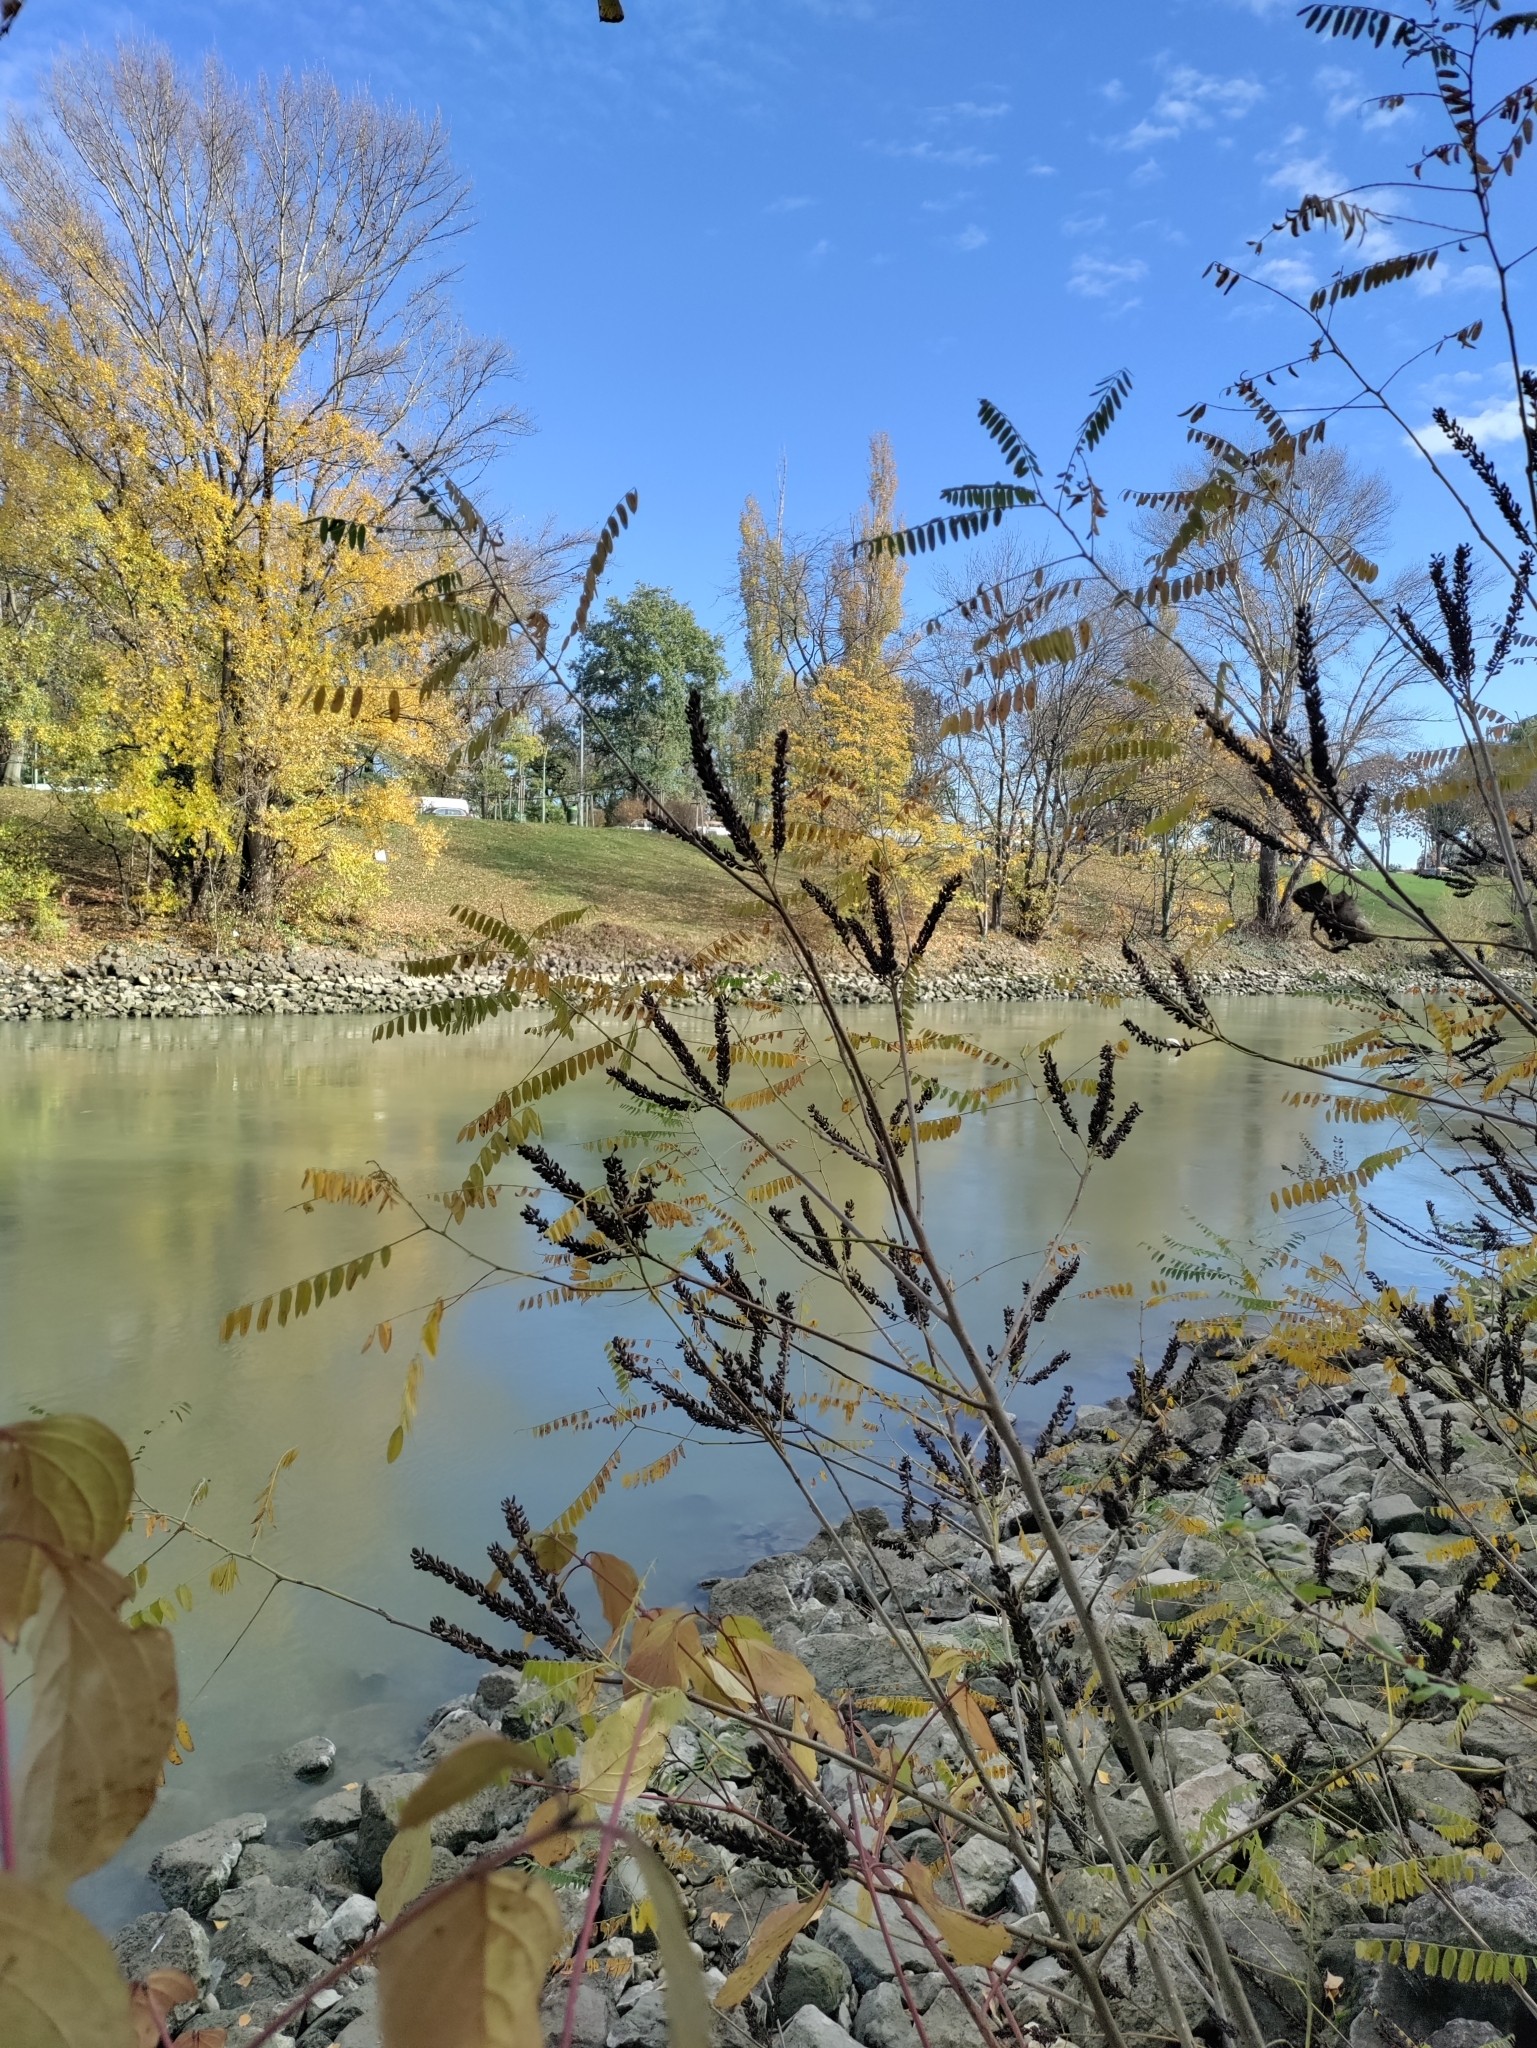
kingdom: Plantae
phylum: Tracheophyta
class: Magnoliopsida
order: Fabales
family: Fabaceae
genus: Amorpha
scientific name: Amorpha fruticosa
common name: False indigo
